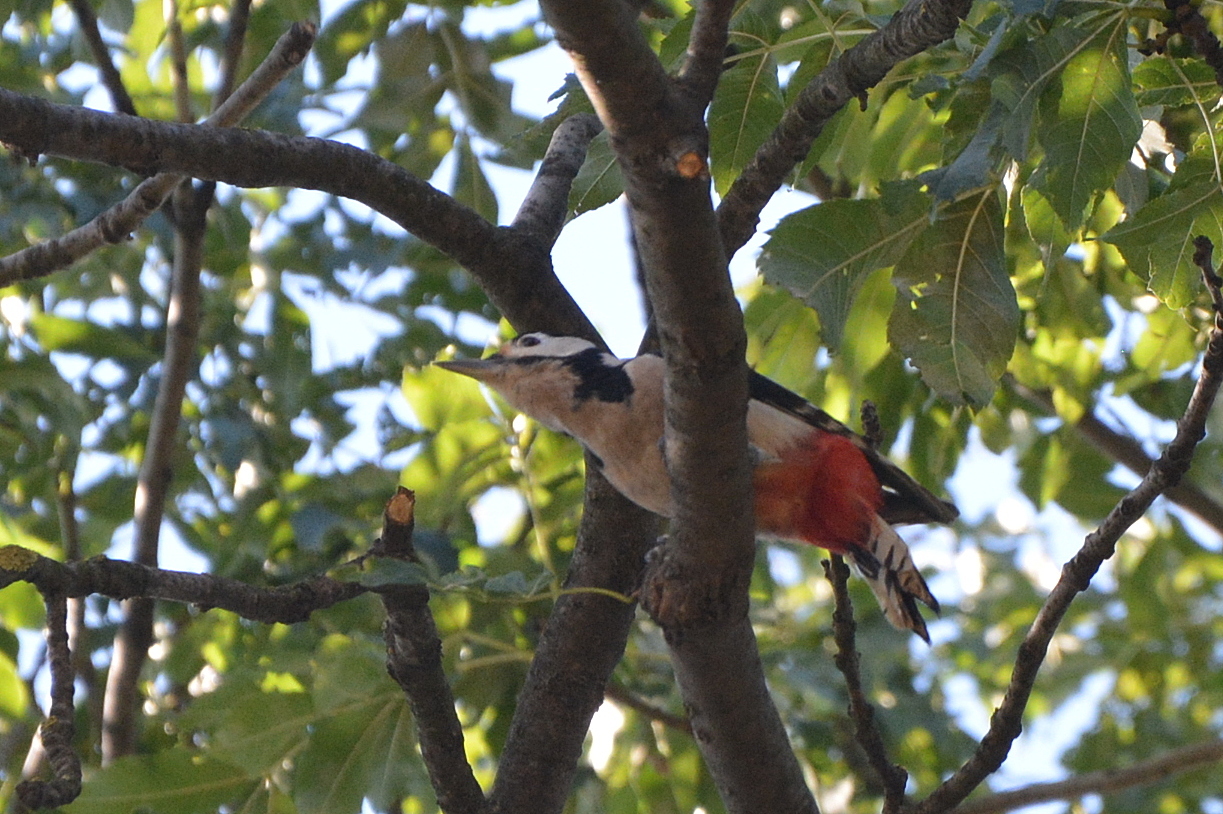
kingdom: Animalia
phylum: Chordata
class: Aves
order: Piciformes
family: Picidae
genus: Dendrocopos
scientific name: Dendrocopos major
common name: Great spotted woodpecker
